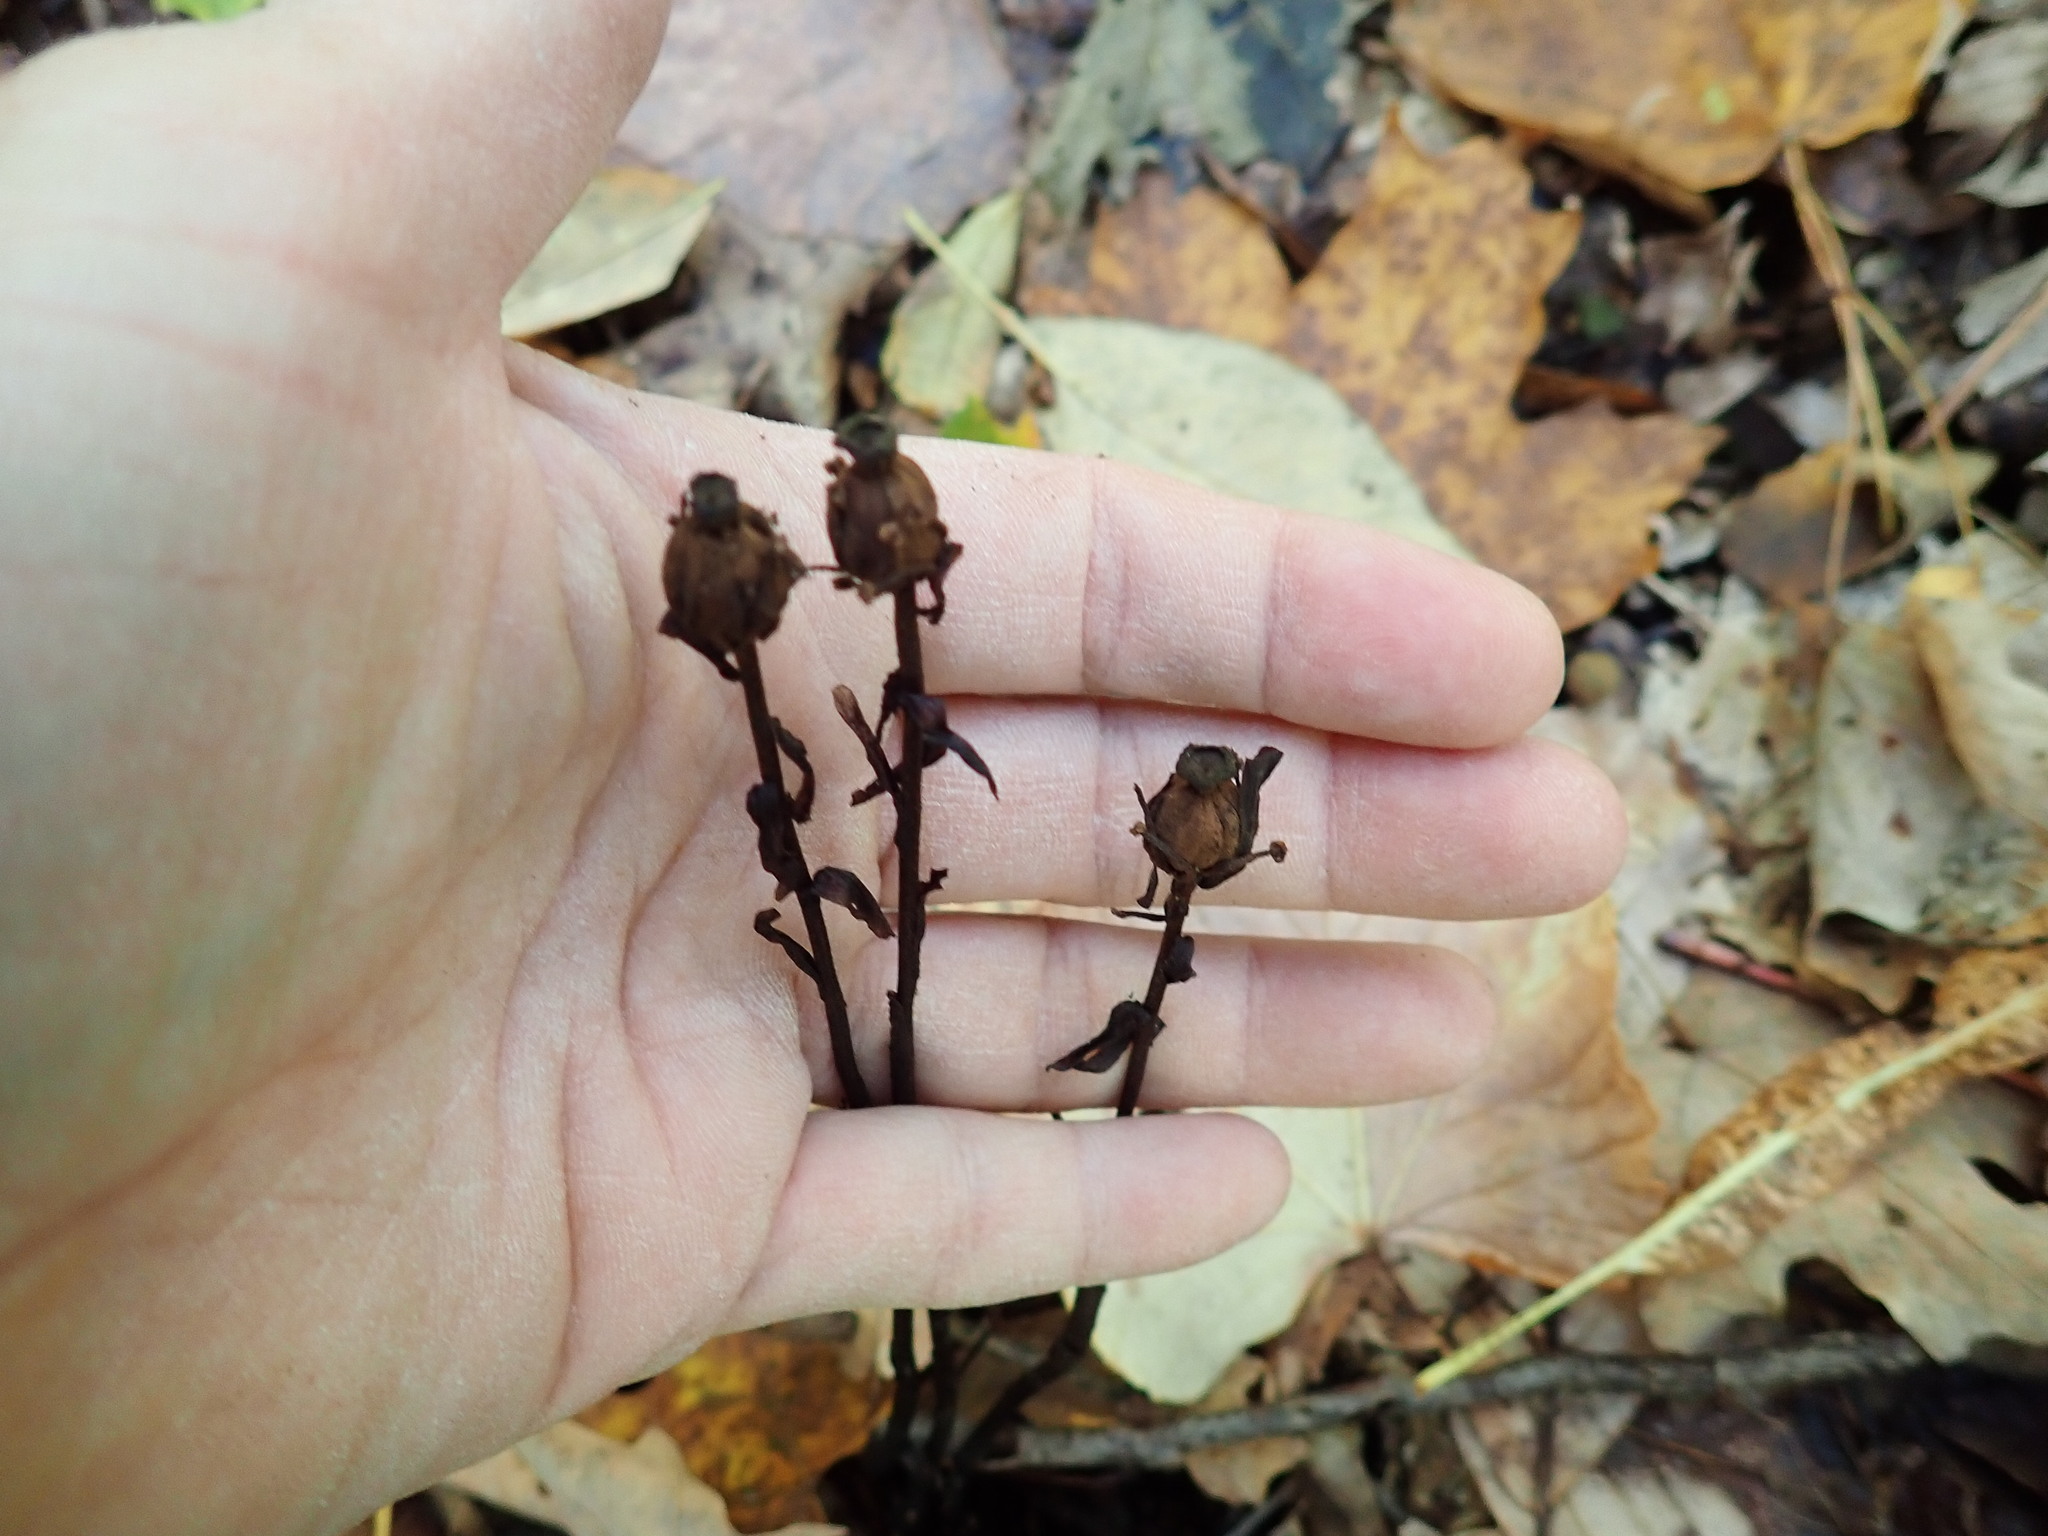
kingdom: Plantae
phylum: Tracheophyta
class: Magnoliopsida
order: Ericales
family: Ericaceae
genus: Monotropa
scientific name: Monotropa uniflora
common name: Convulsion root
